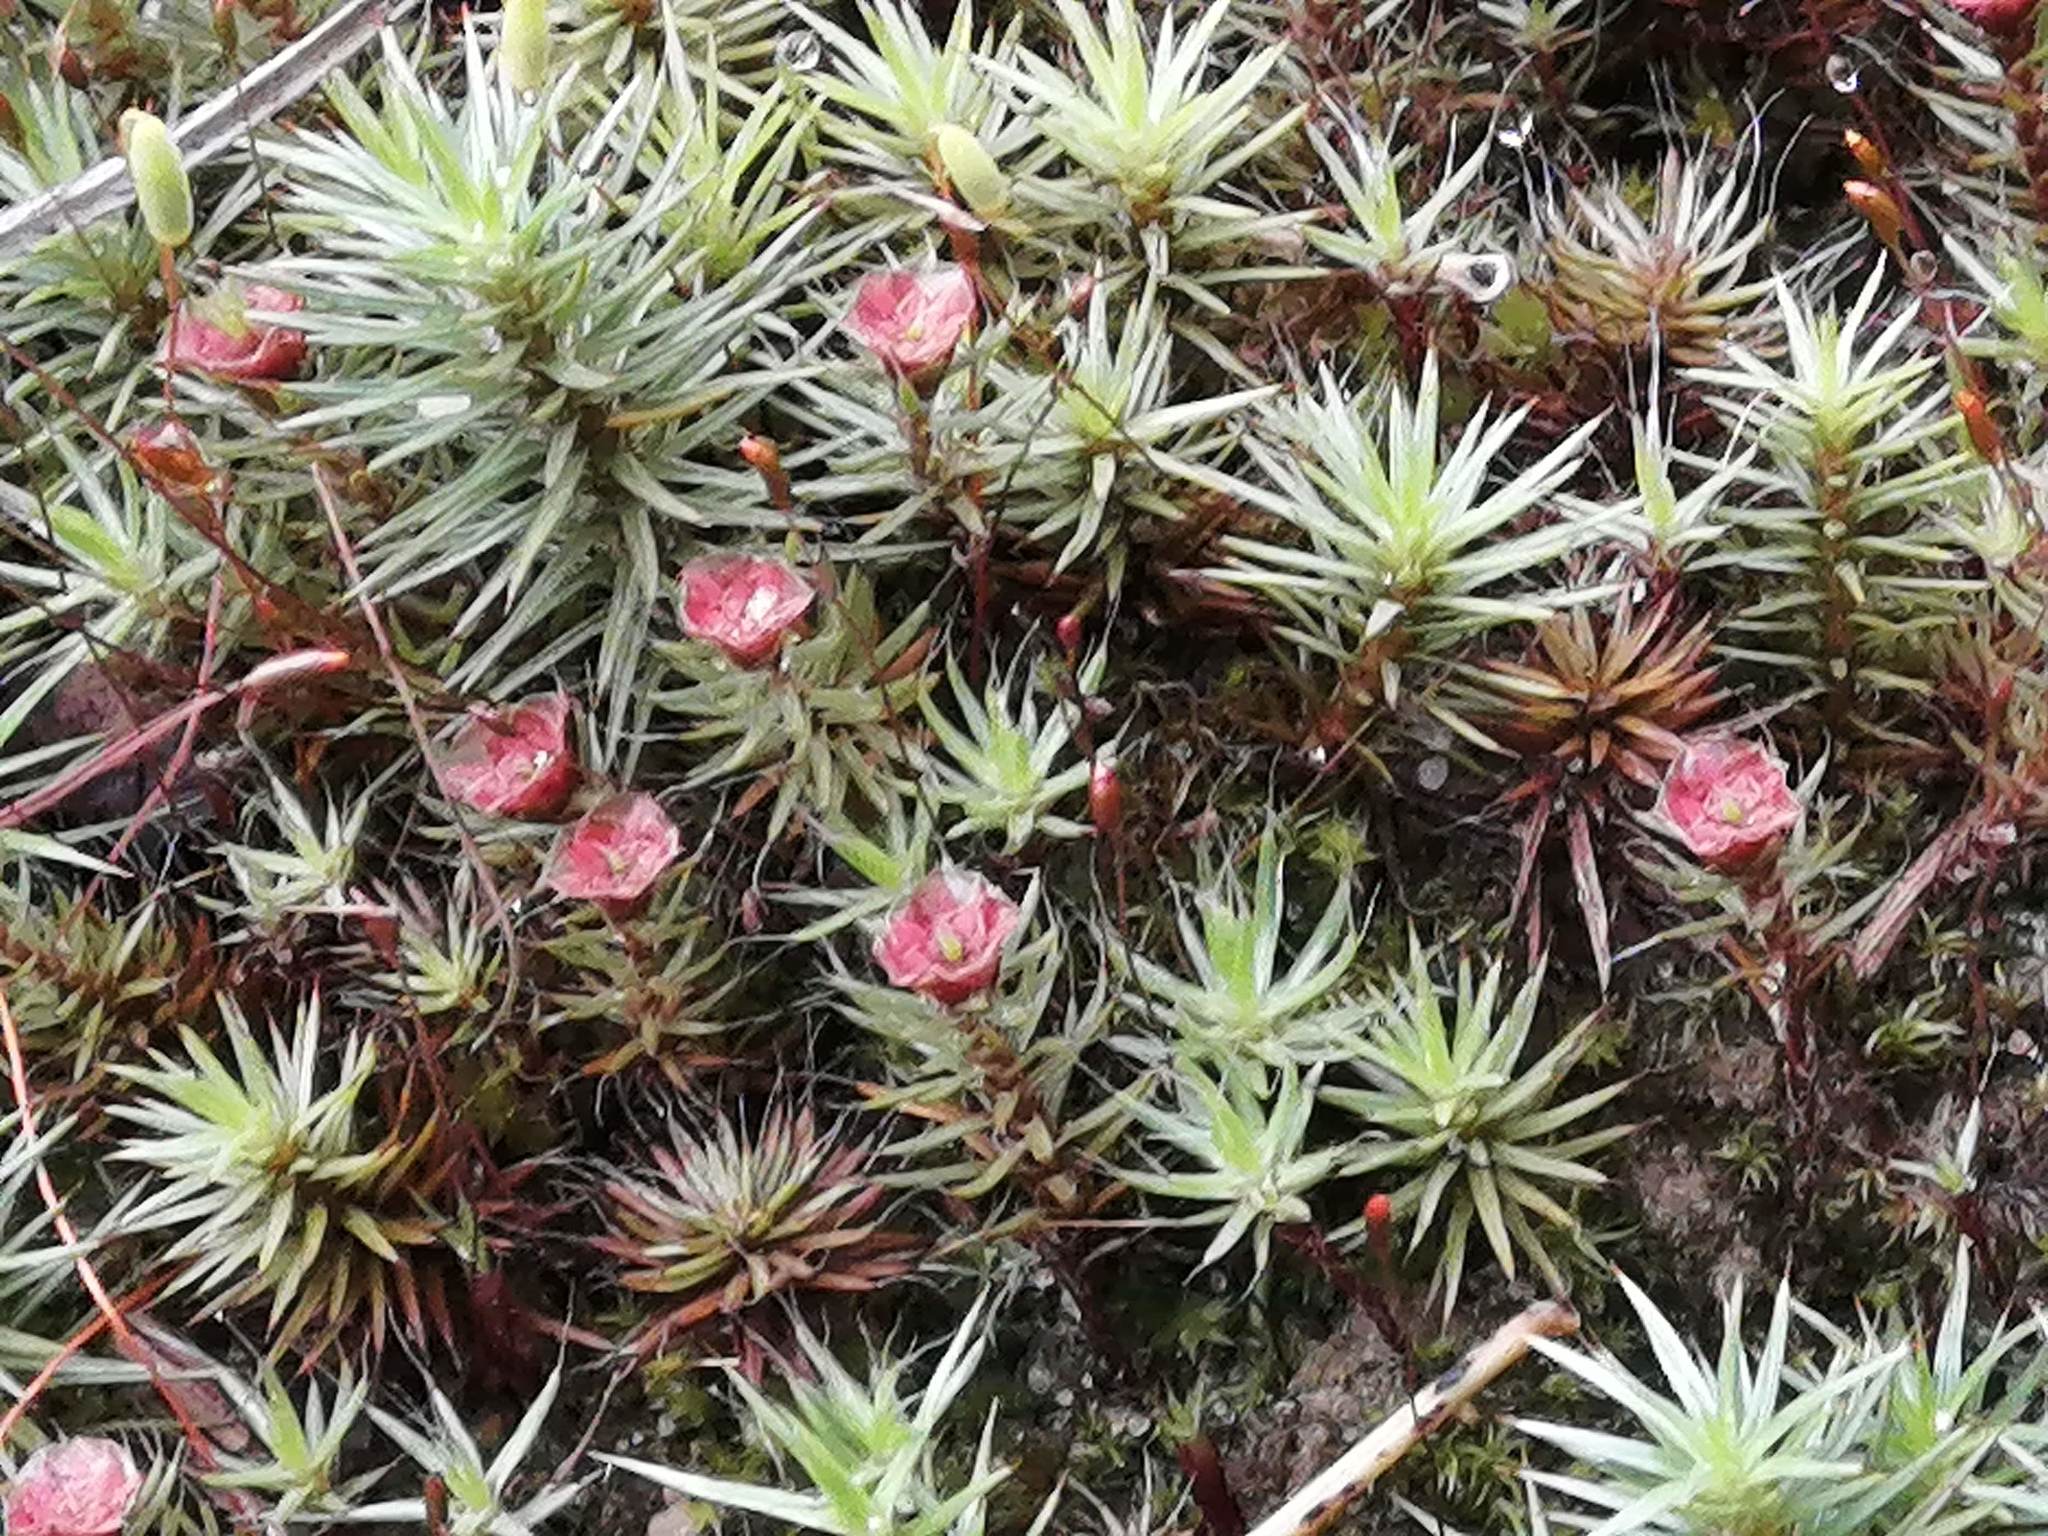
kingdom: Plantae
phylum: Bryophyta
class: Polytrichopsida
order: Polytrichales
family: Polytrichaceae
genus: Polytrichum
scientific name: Polytrichum juniperinum
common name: Juniper haircap moss
